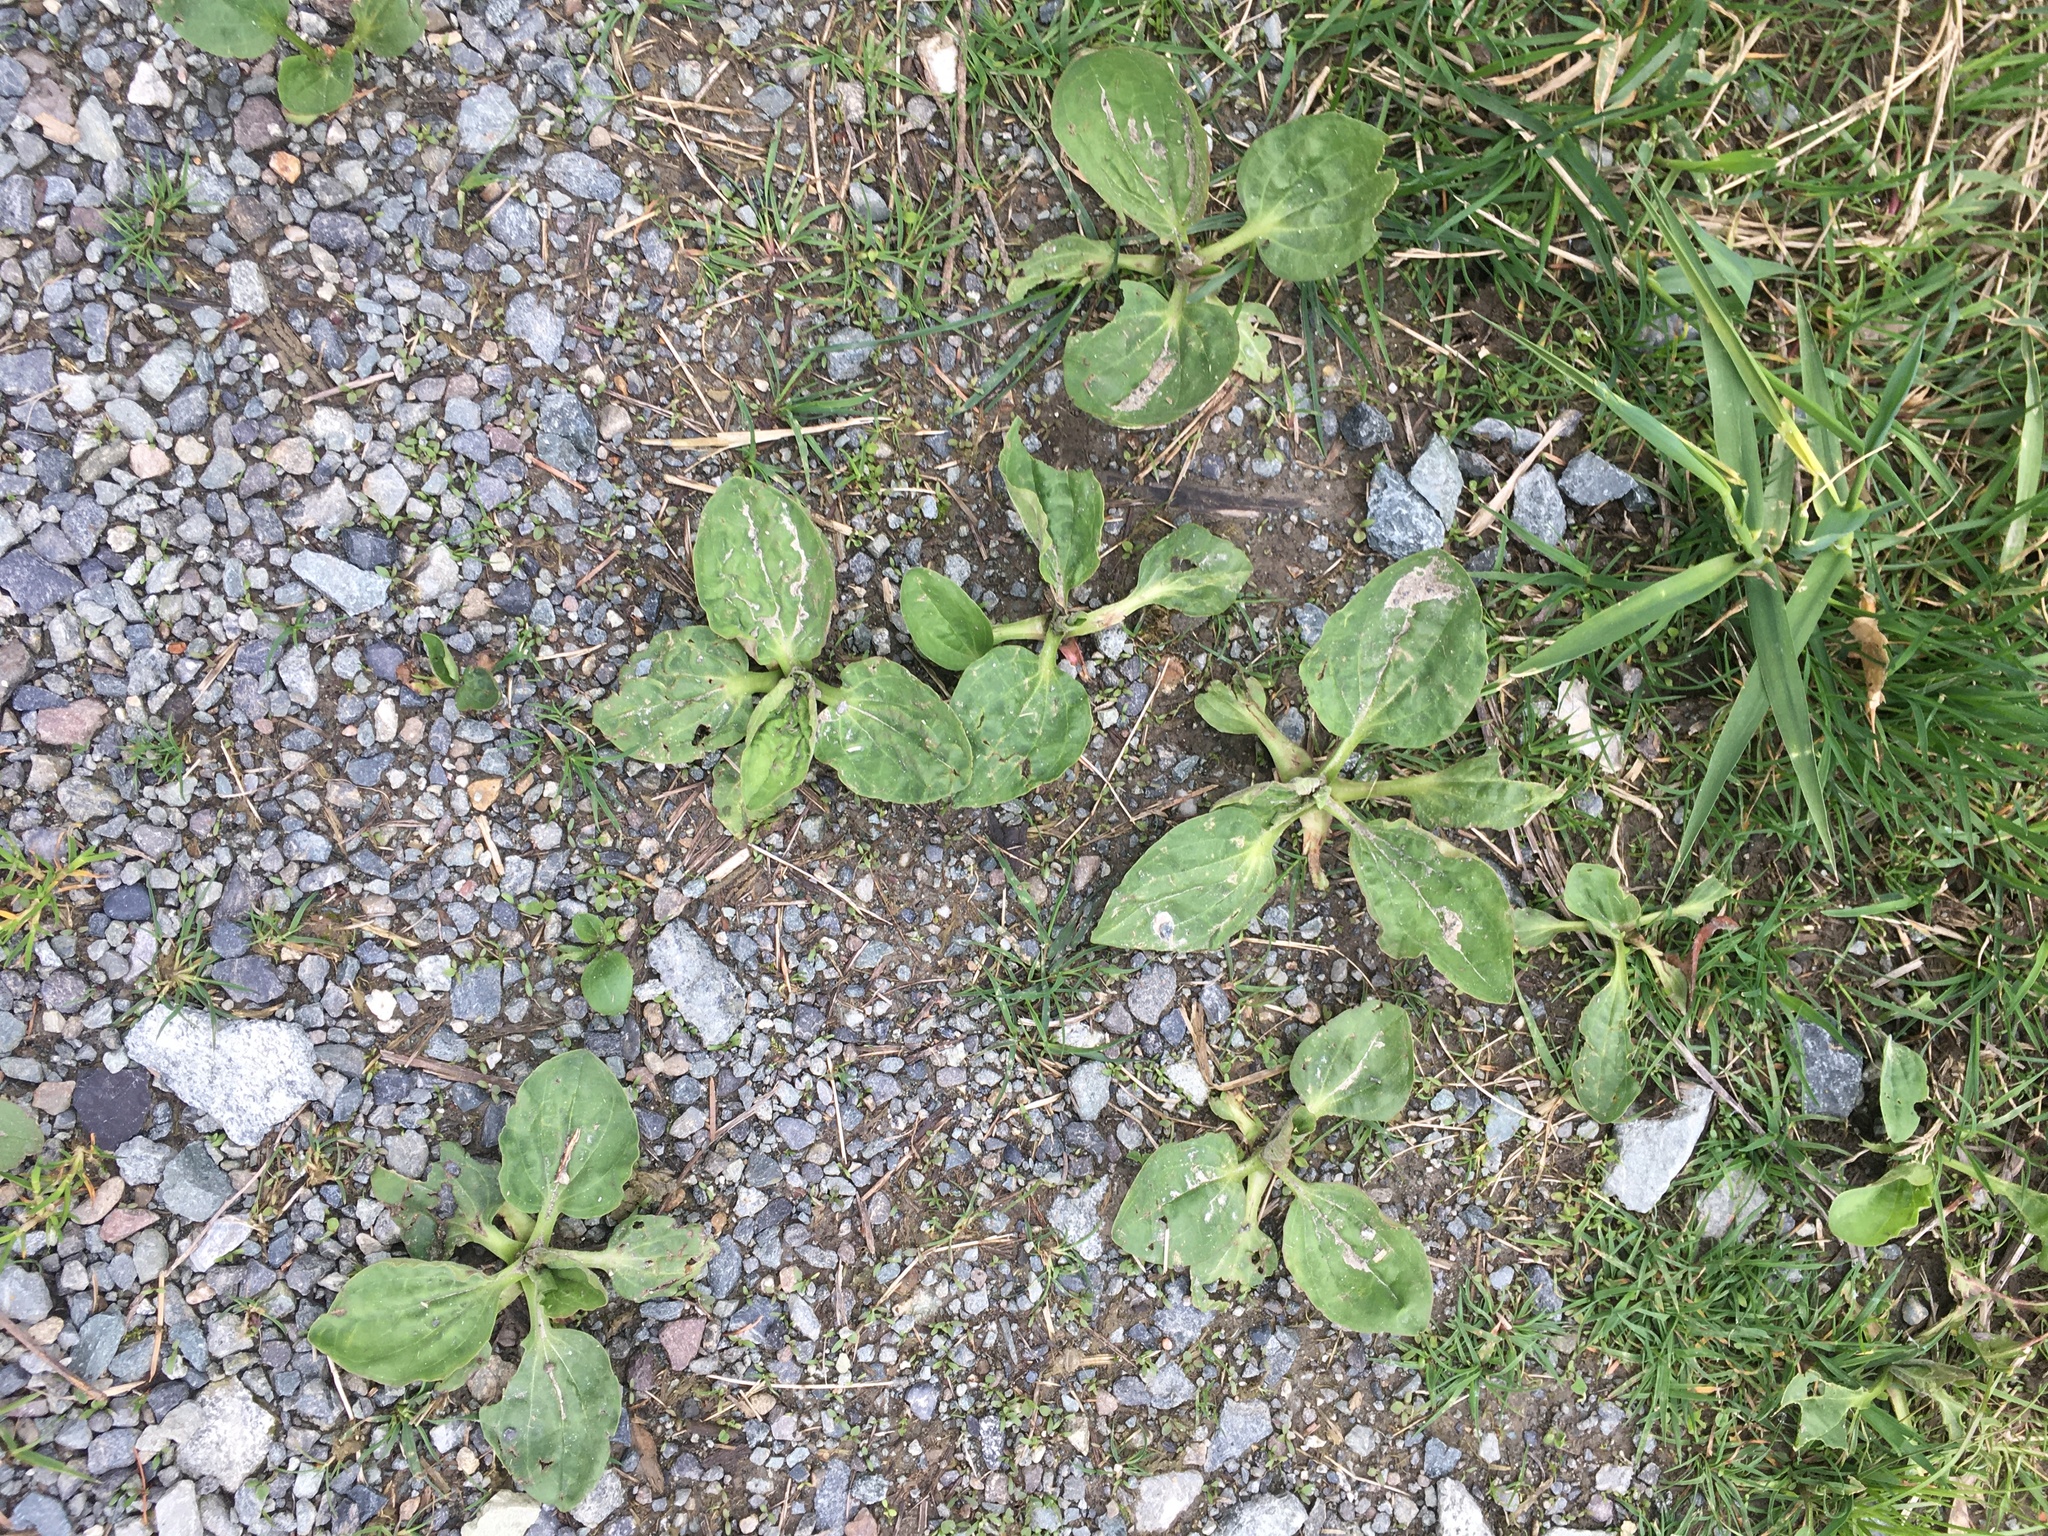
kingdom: Plantae
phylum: Tracheophyta
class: Magnoliopsida
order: Lamiales
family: Plantaginaceae
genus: Plantago
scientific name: Plantago major
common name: Common plantain
